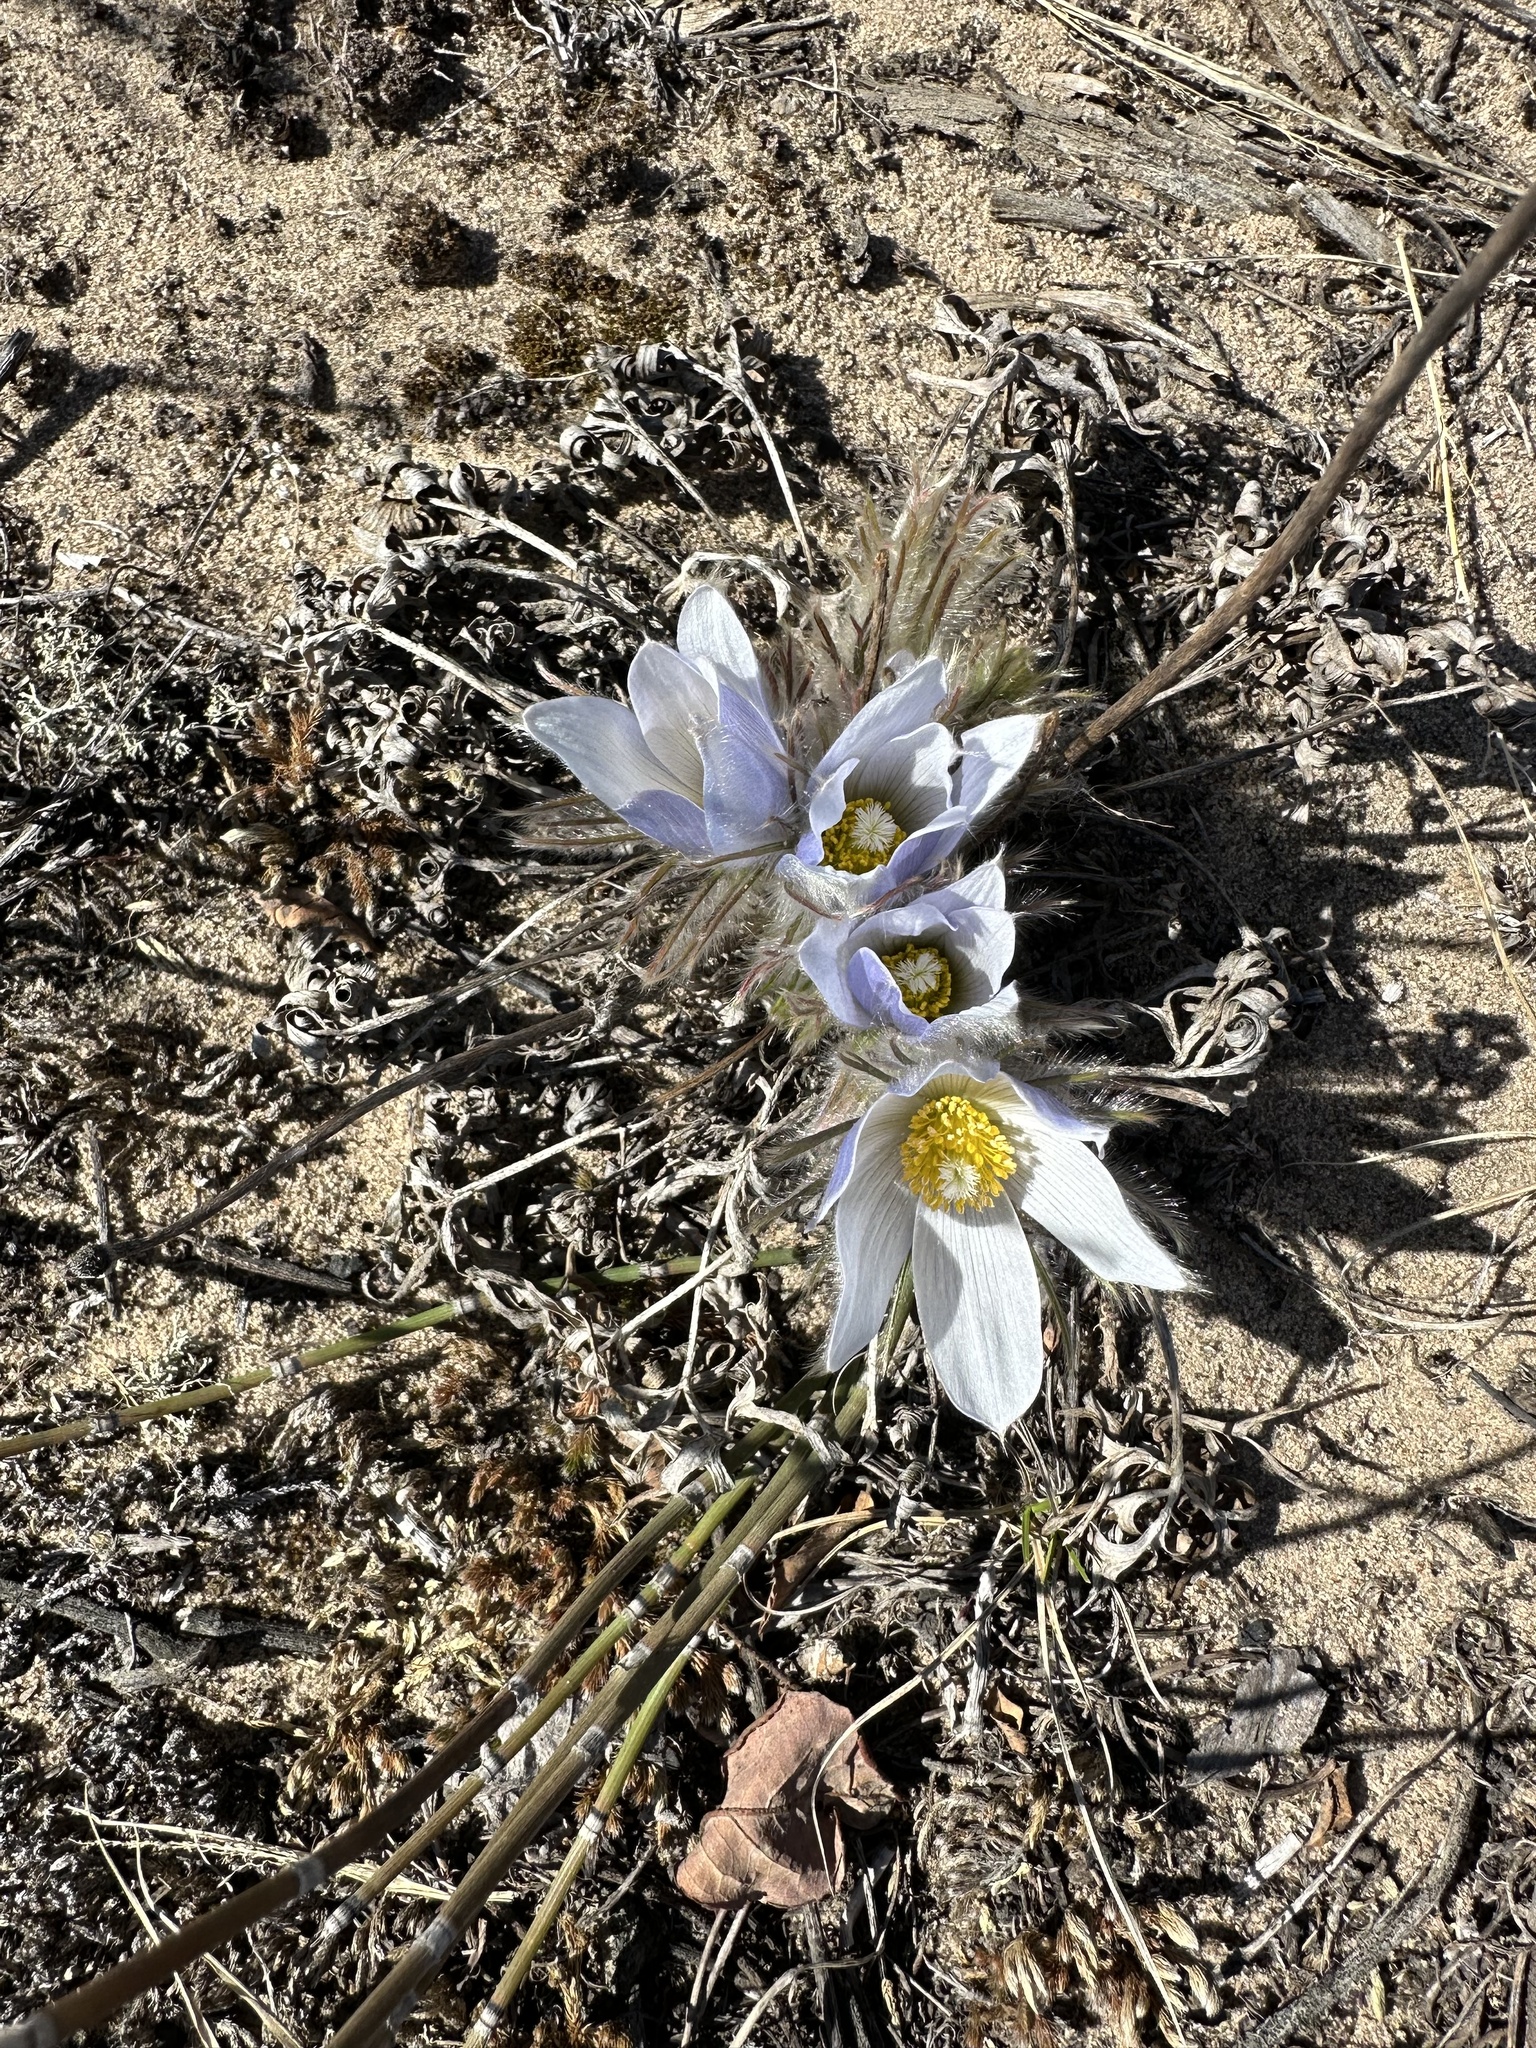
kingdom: Plantae
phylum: Tracheophyta
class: Magnoliopsida
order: Ranunculales
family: Ranunculaceae
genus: Pulsatilla
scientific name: Pulsatilla nuttalliana
